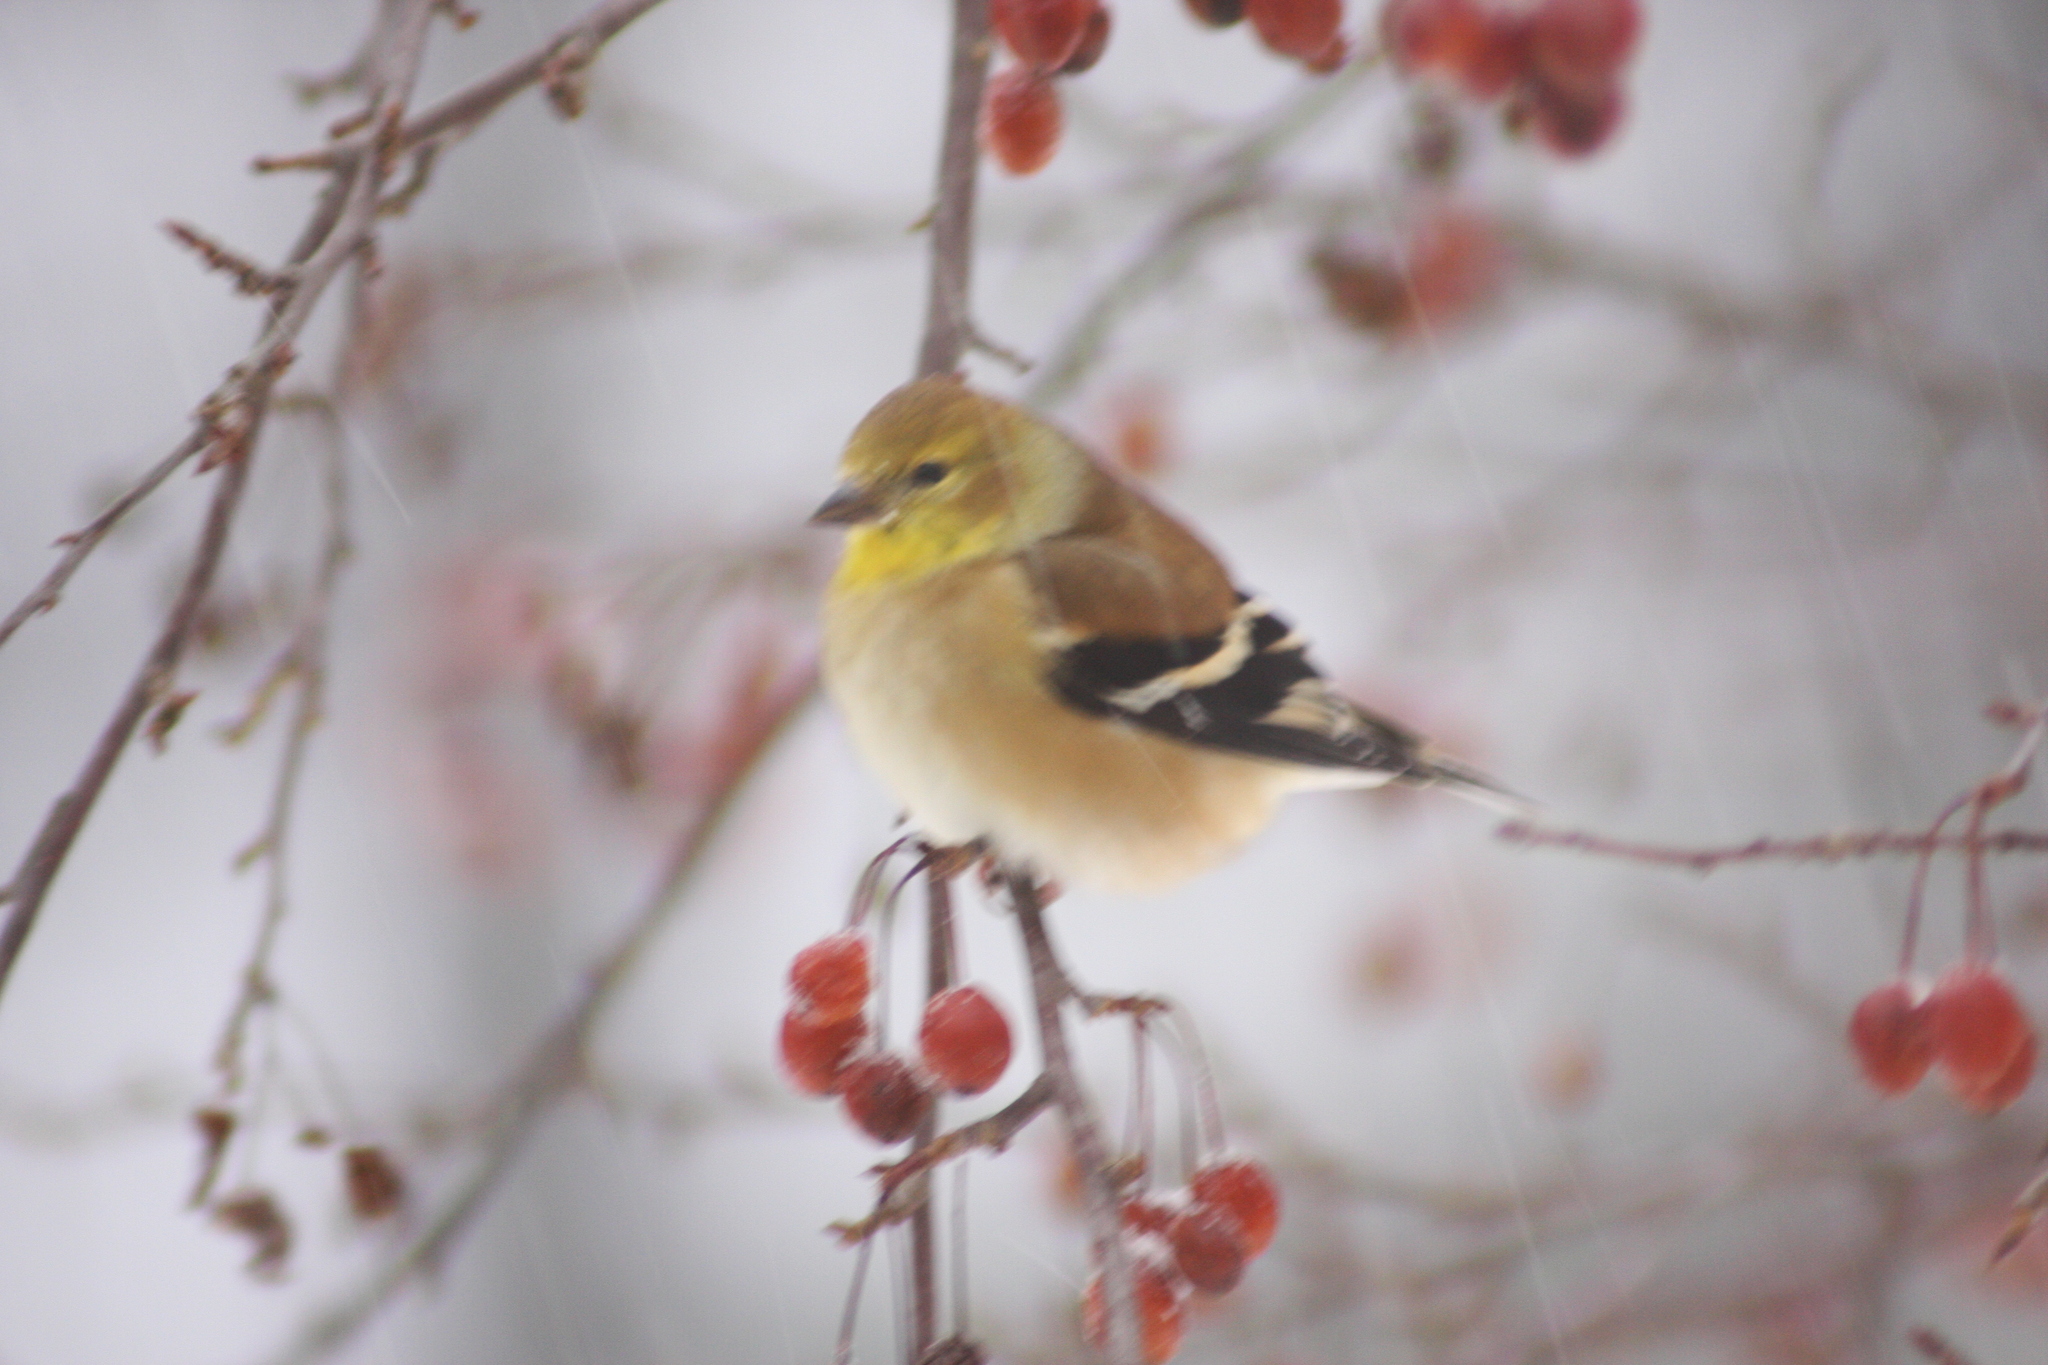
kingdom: Animalia
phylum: Chordata
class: Aves
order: Passeriformes
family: Fringillidae
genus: Spinus
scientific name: Spinus tristis
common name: American goldfinch
